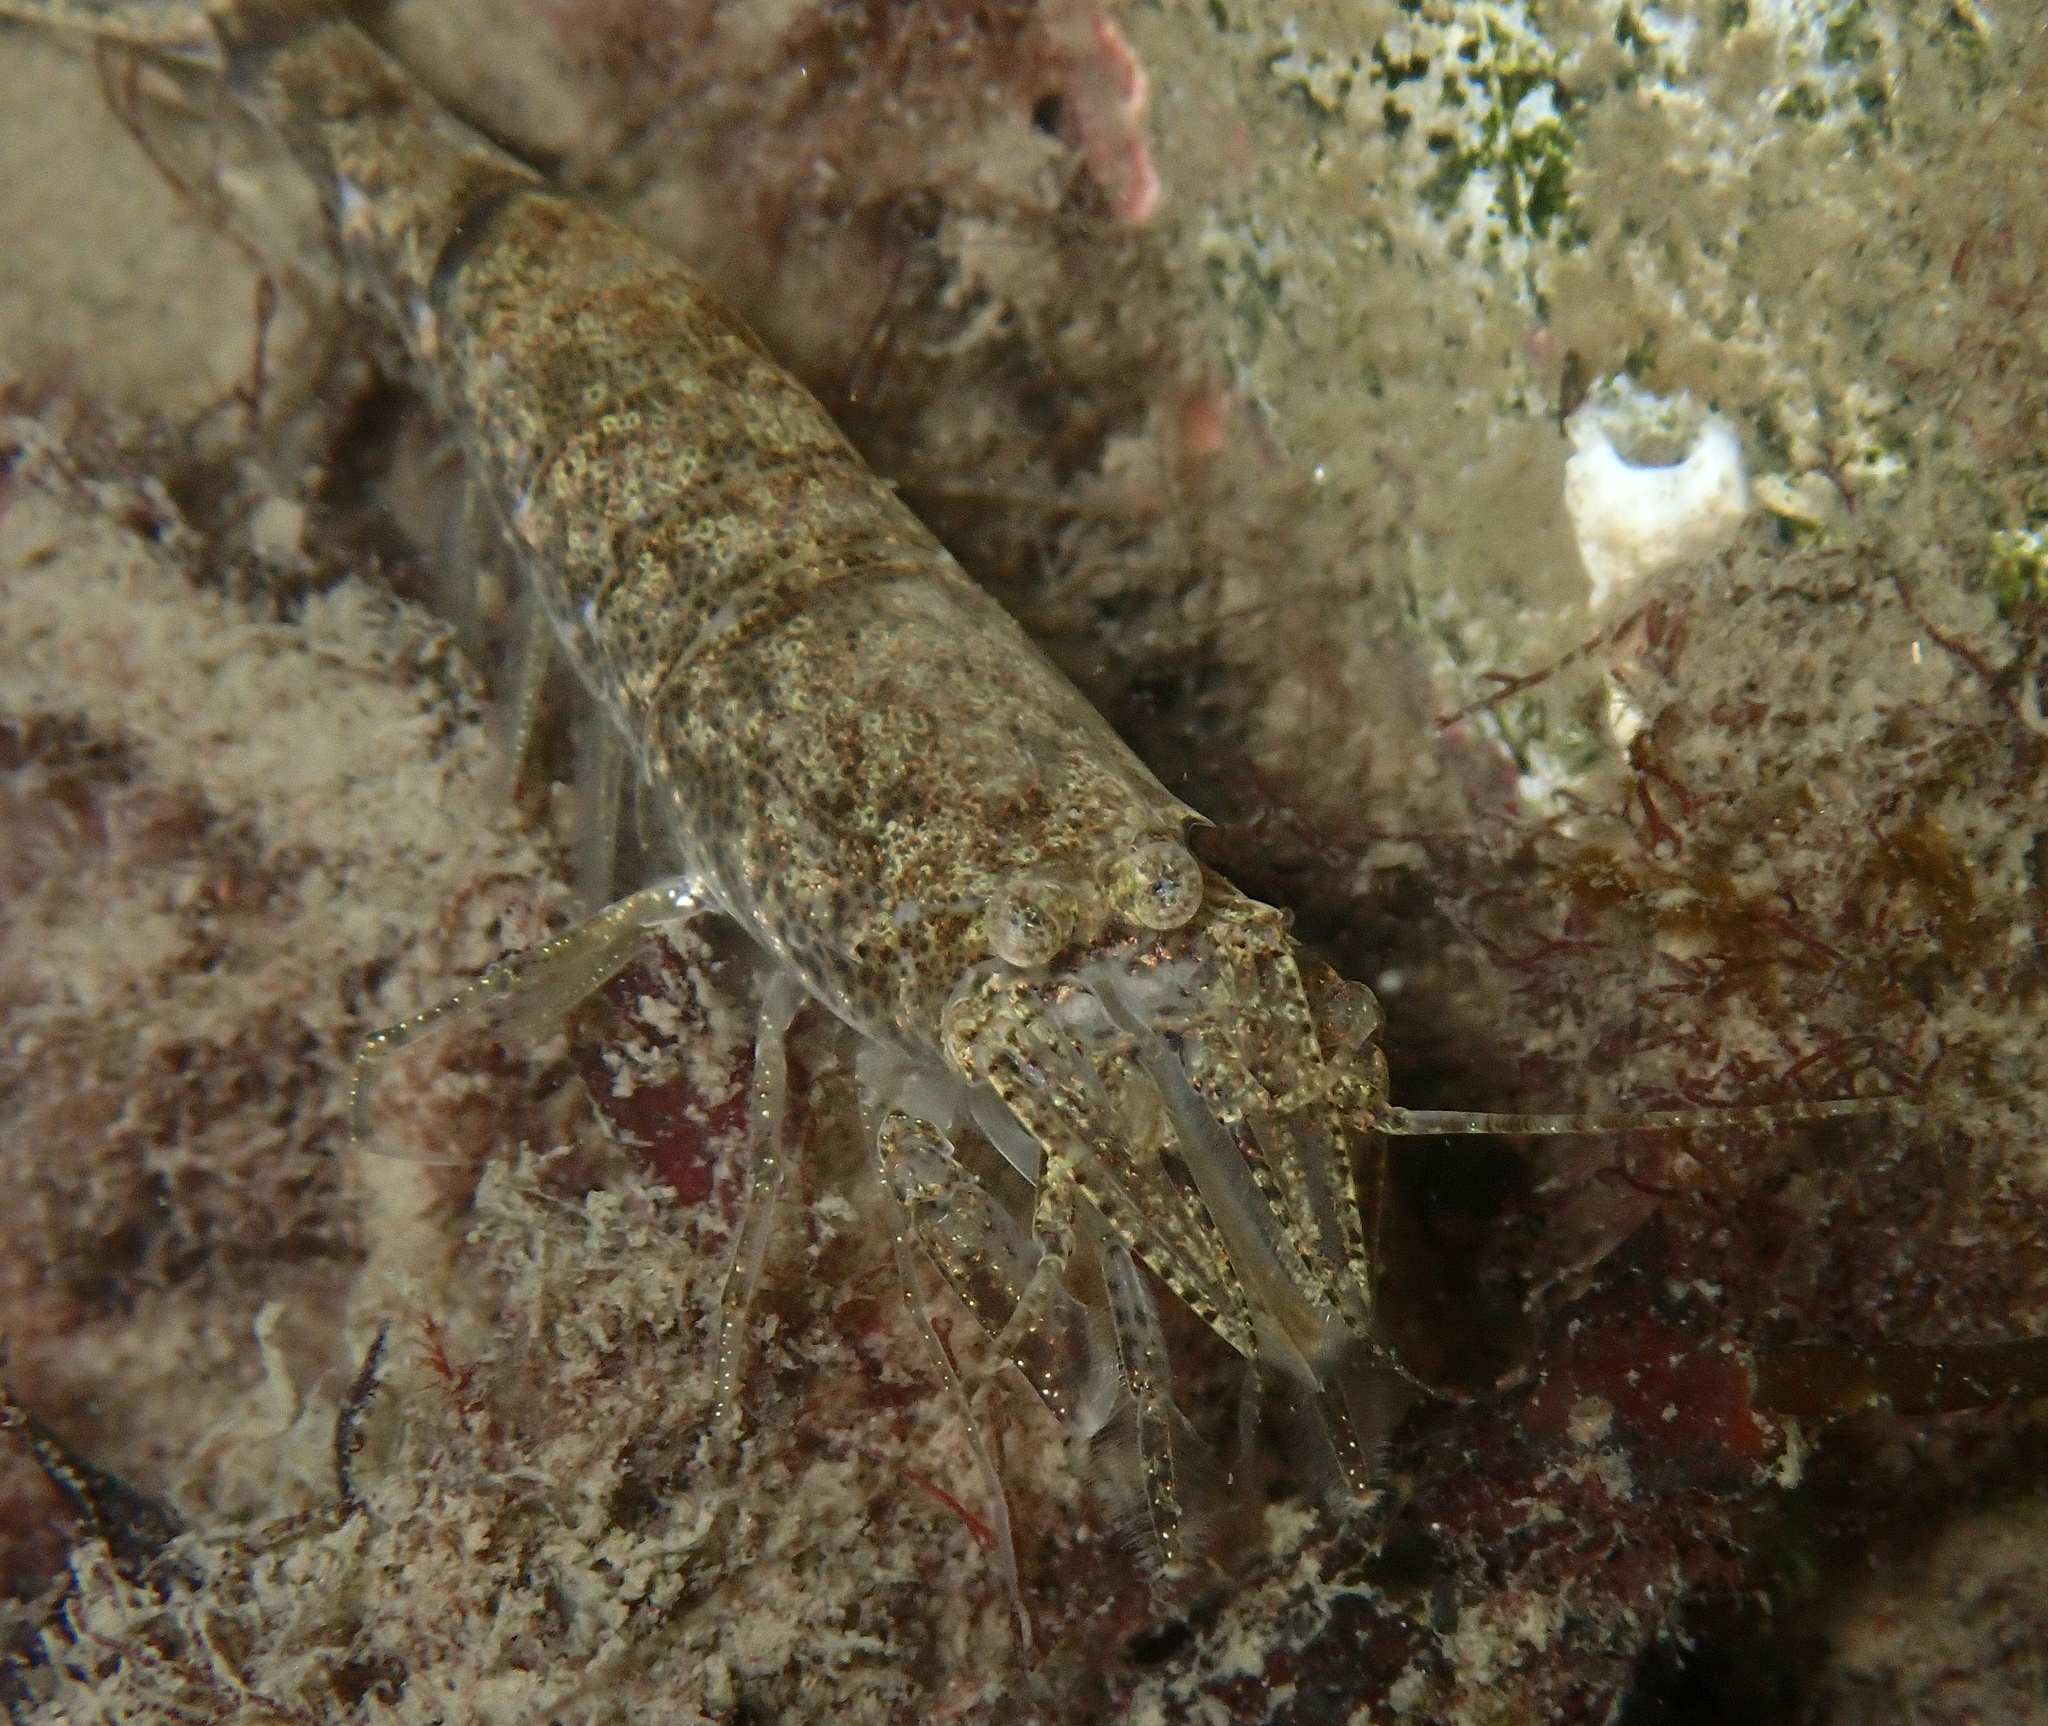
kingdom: Animalia
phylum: Arthropoda
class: Malacostraca
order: Decapoda
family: Crangonidae
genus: Crangon
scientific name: Crangon crangon
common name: Brown shrimp
